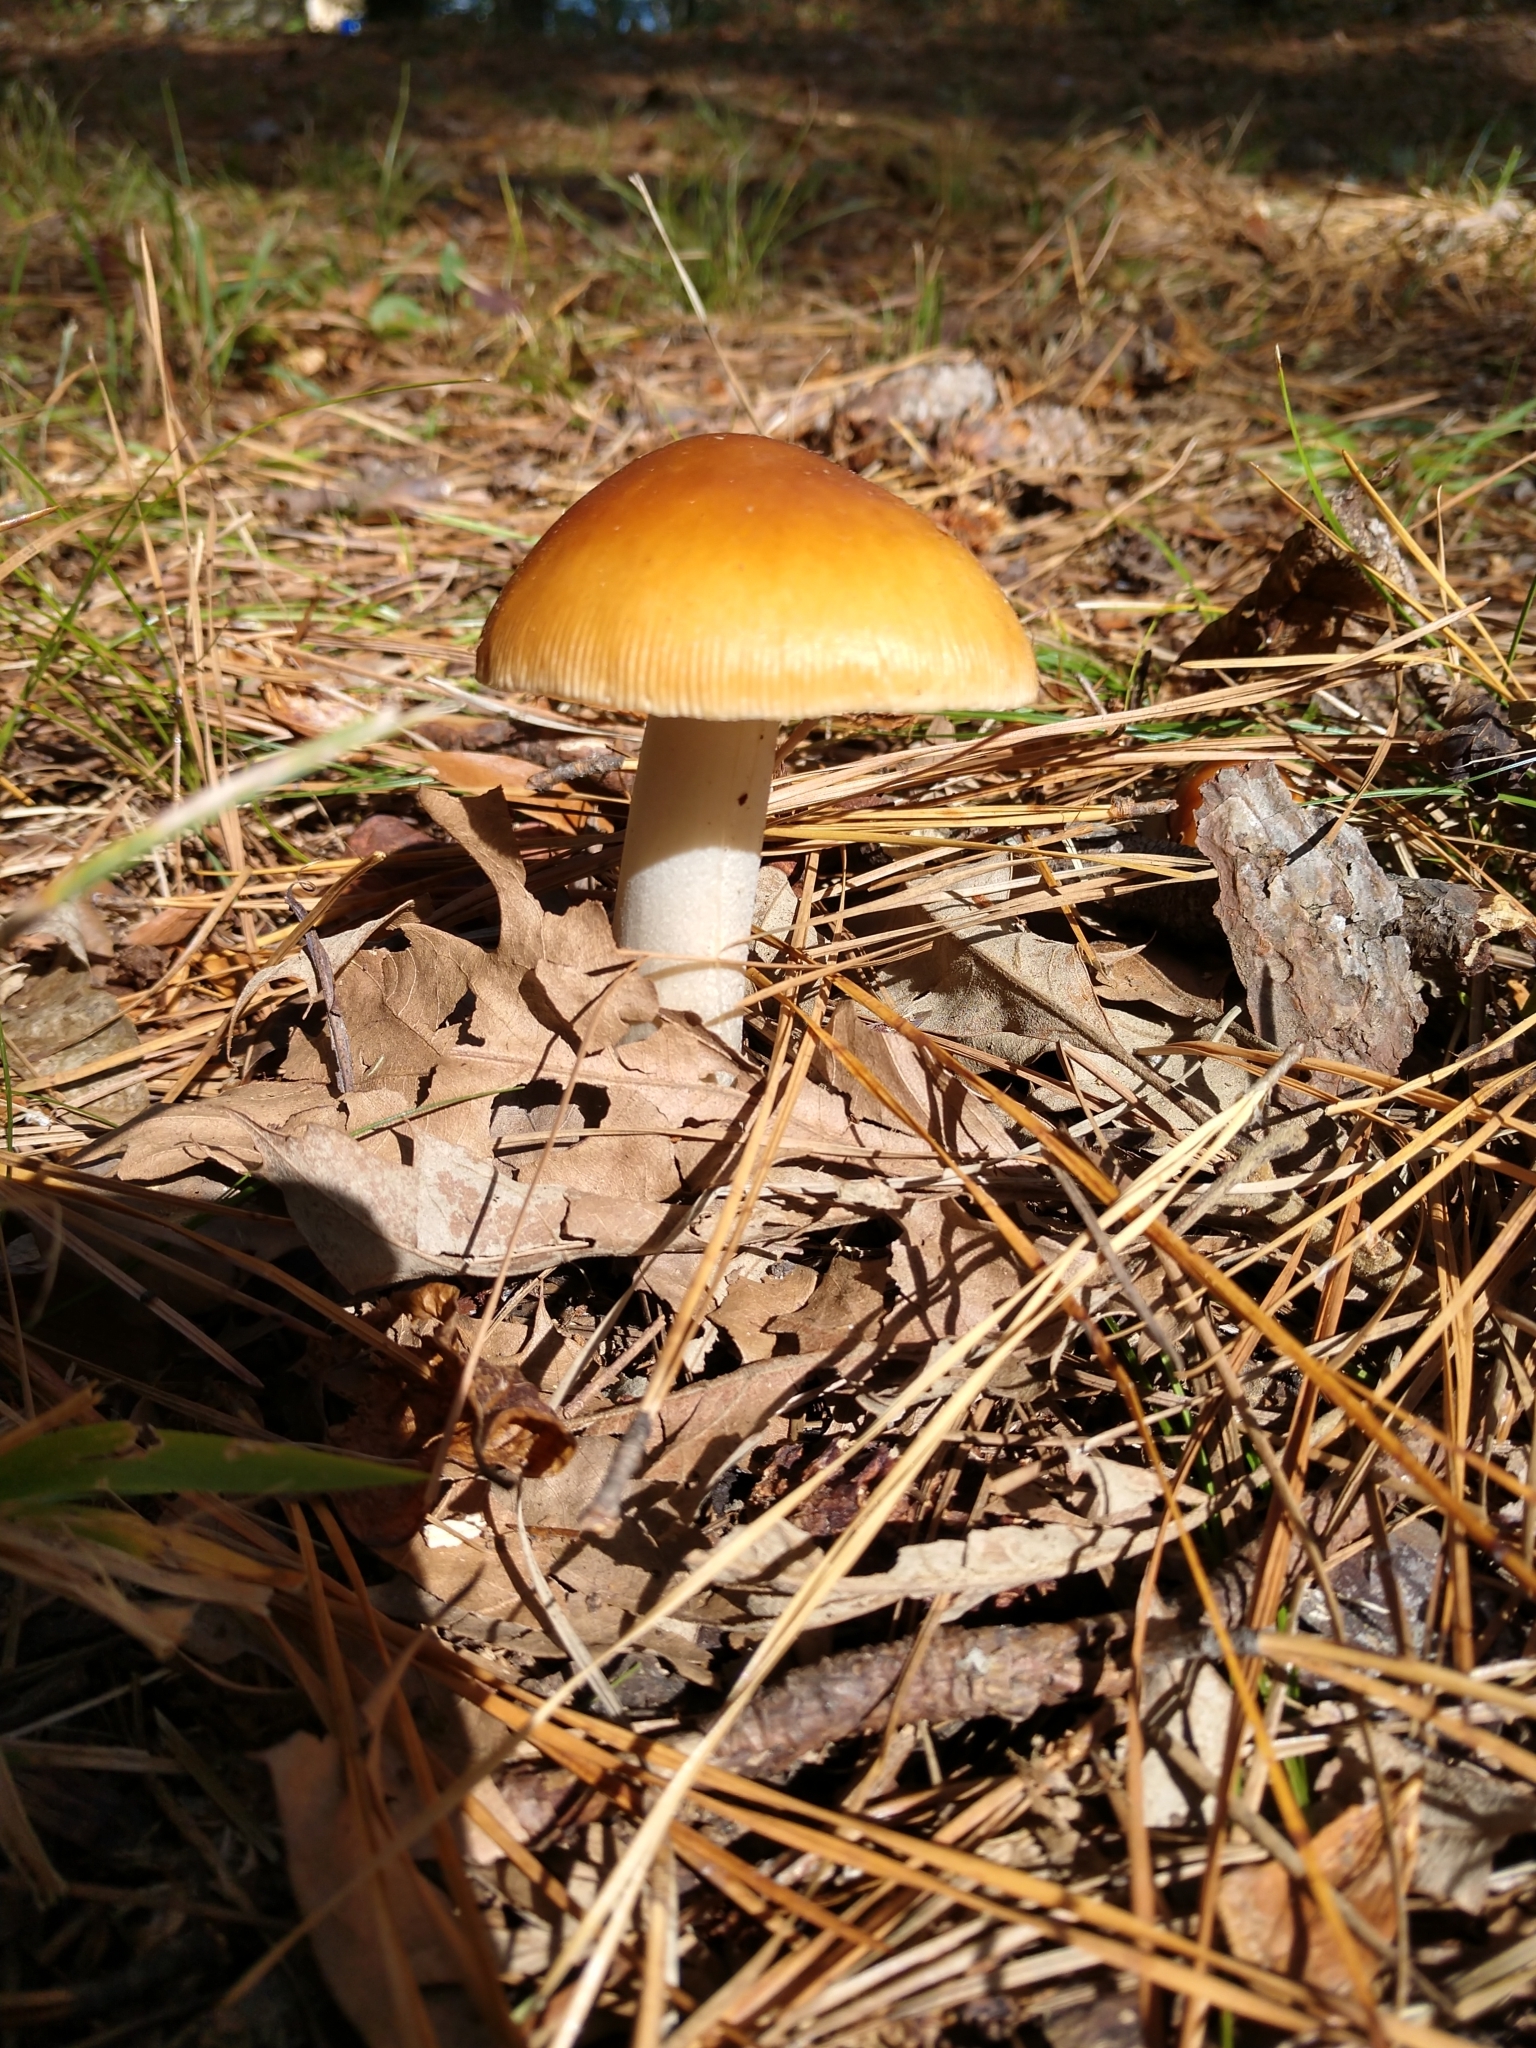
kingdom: Fungi
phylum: Basidiomycota
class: Agaricomycetes
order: Agaricales
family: Amanitaceae
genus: Amanita
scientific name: Amanita fulva
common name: Tawny grisette
